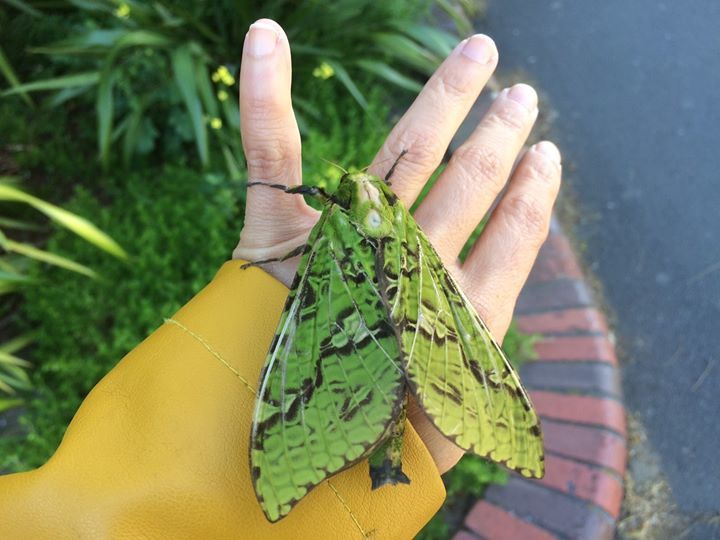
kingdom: Animalia
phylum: Arthropoda
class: Insecta
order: Lepidoptera
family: Hepialidae
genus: Aenetus
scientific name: Aenetus virescens
